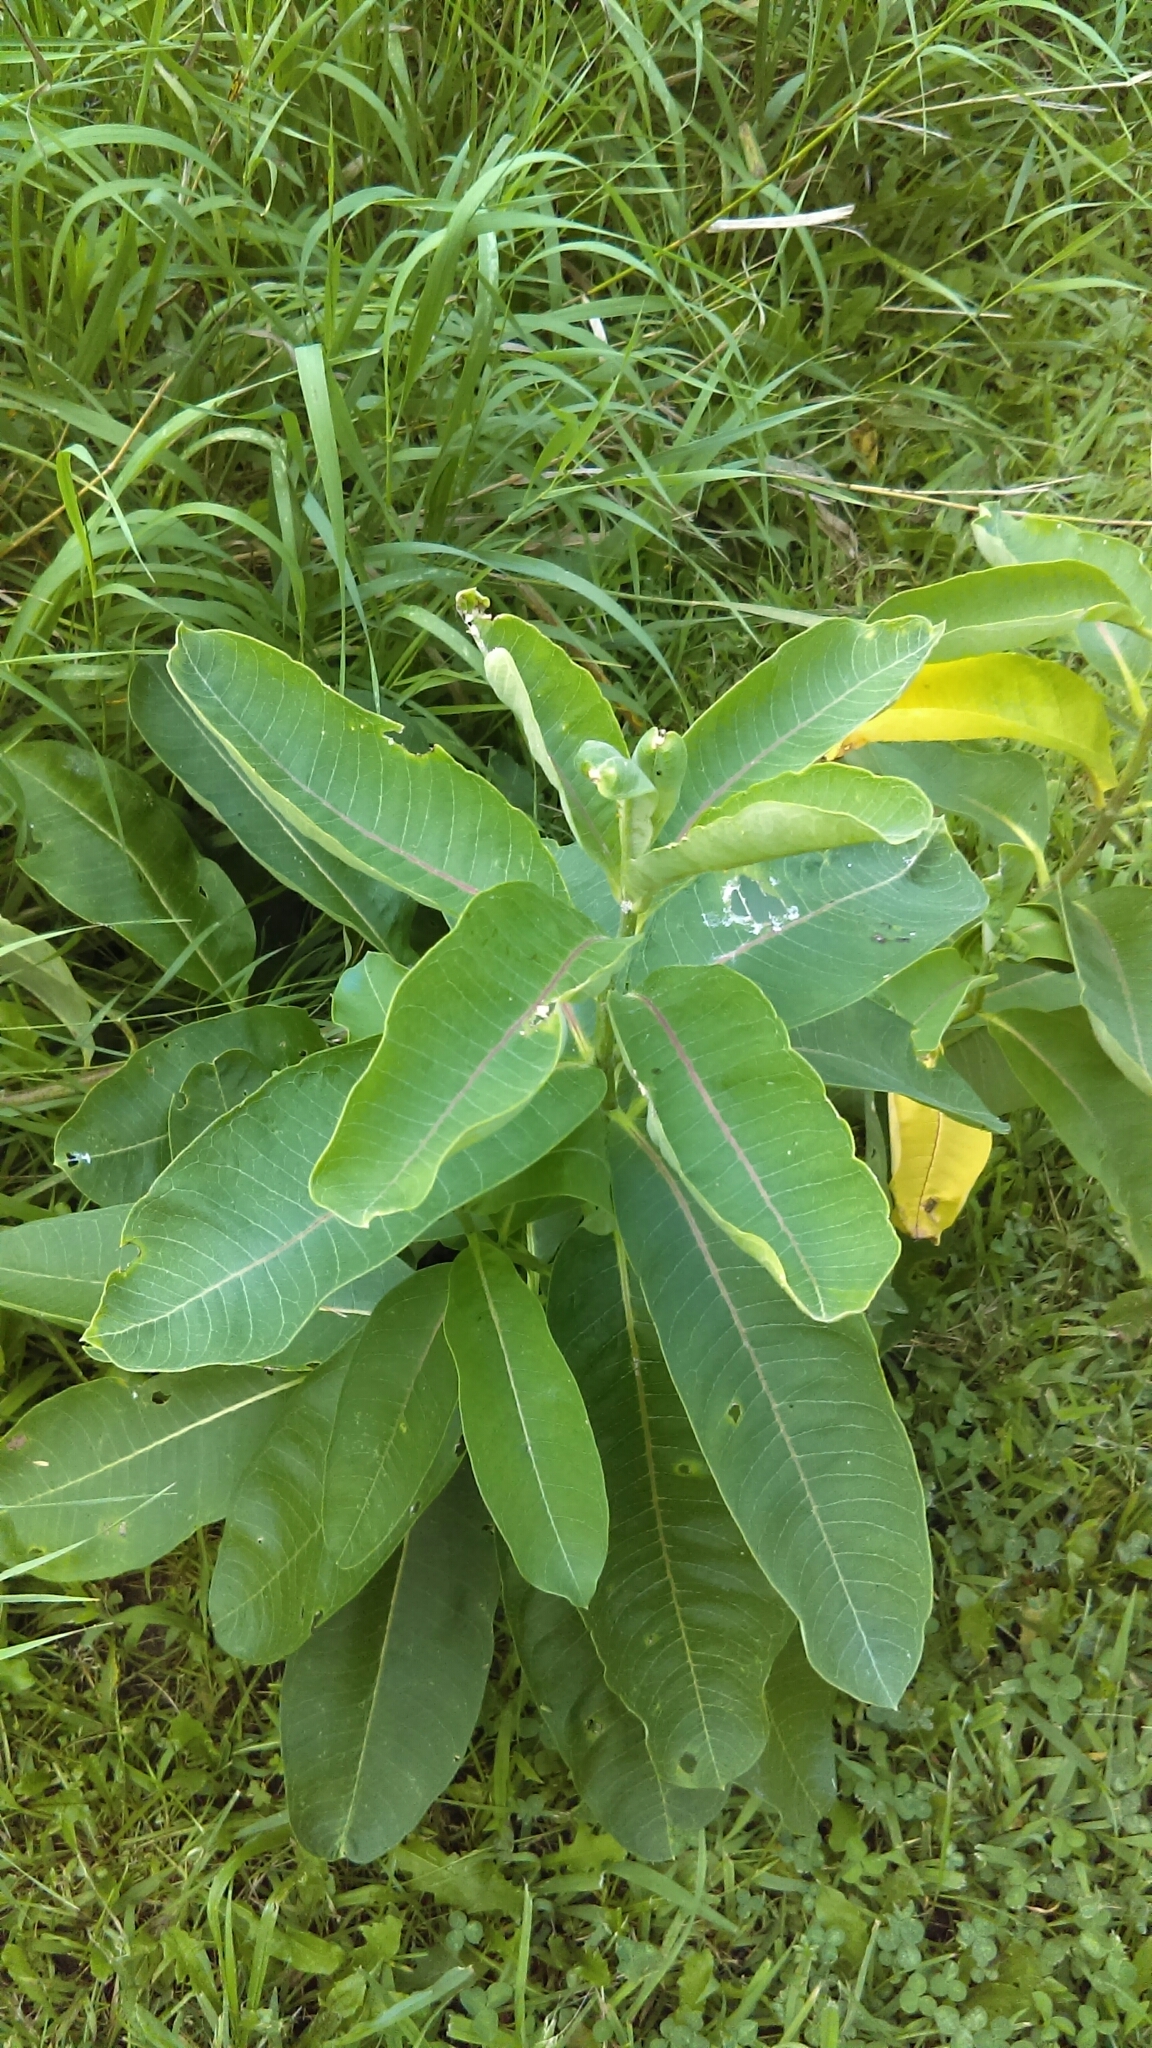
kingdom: Plantae
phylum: Tracheophyta
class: Magnoliopsida
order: Gentianales
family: Apocynaceae
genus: Asclepias
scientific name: Asclepias syriaca
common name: Common milkweed
